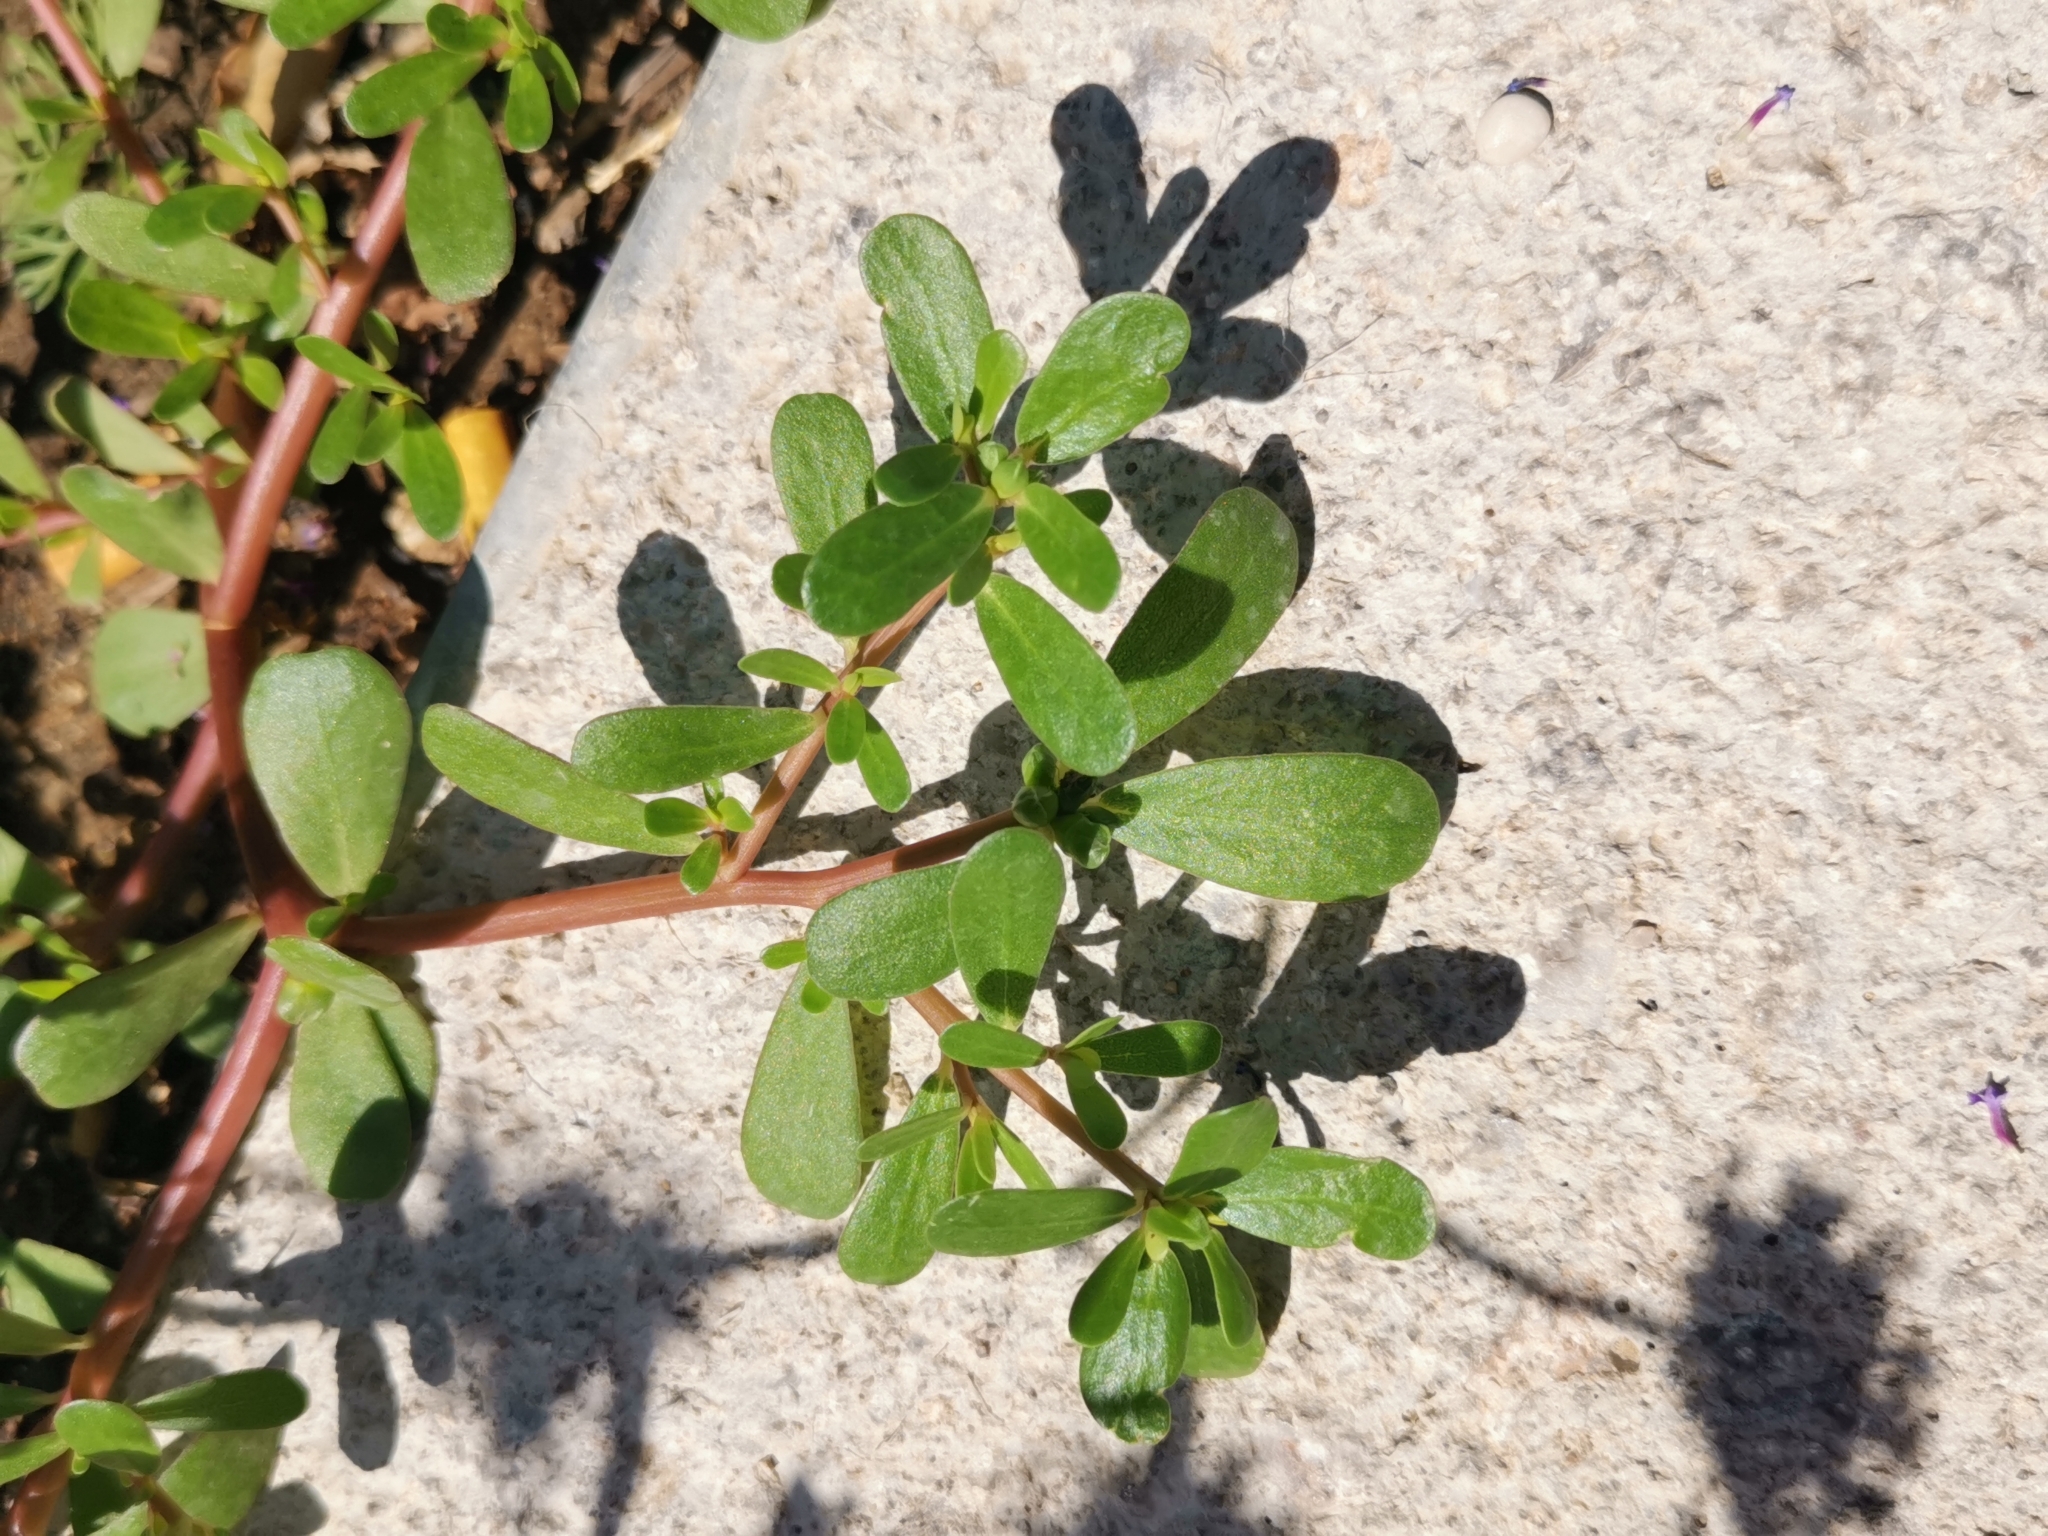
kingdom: Plantae
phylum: Tracheophyta
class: Magnoliopsida
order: Caryophyllales
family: Portulacaceae
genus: Portulaca
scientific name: Portulaca oleracea
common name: Common purslane
